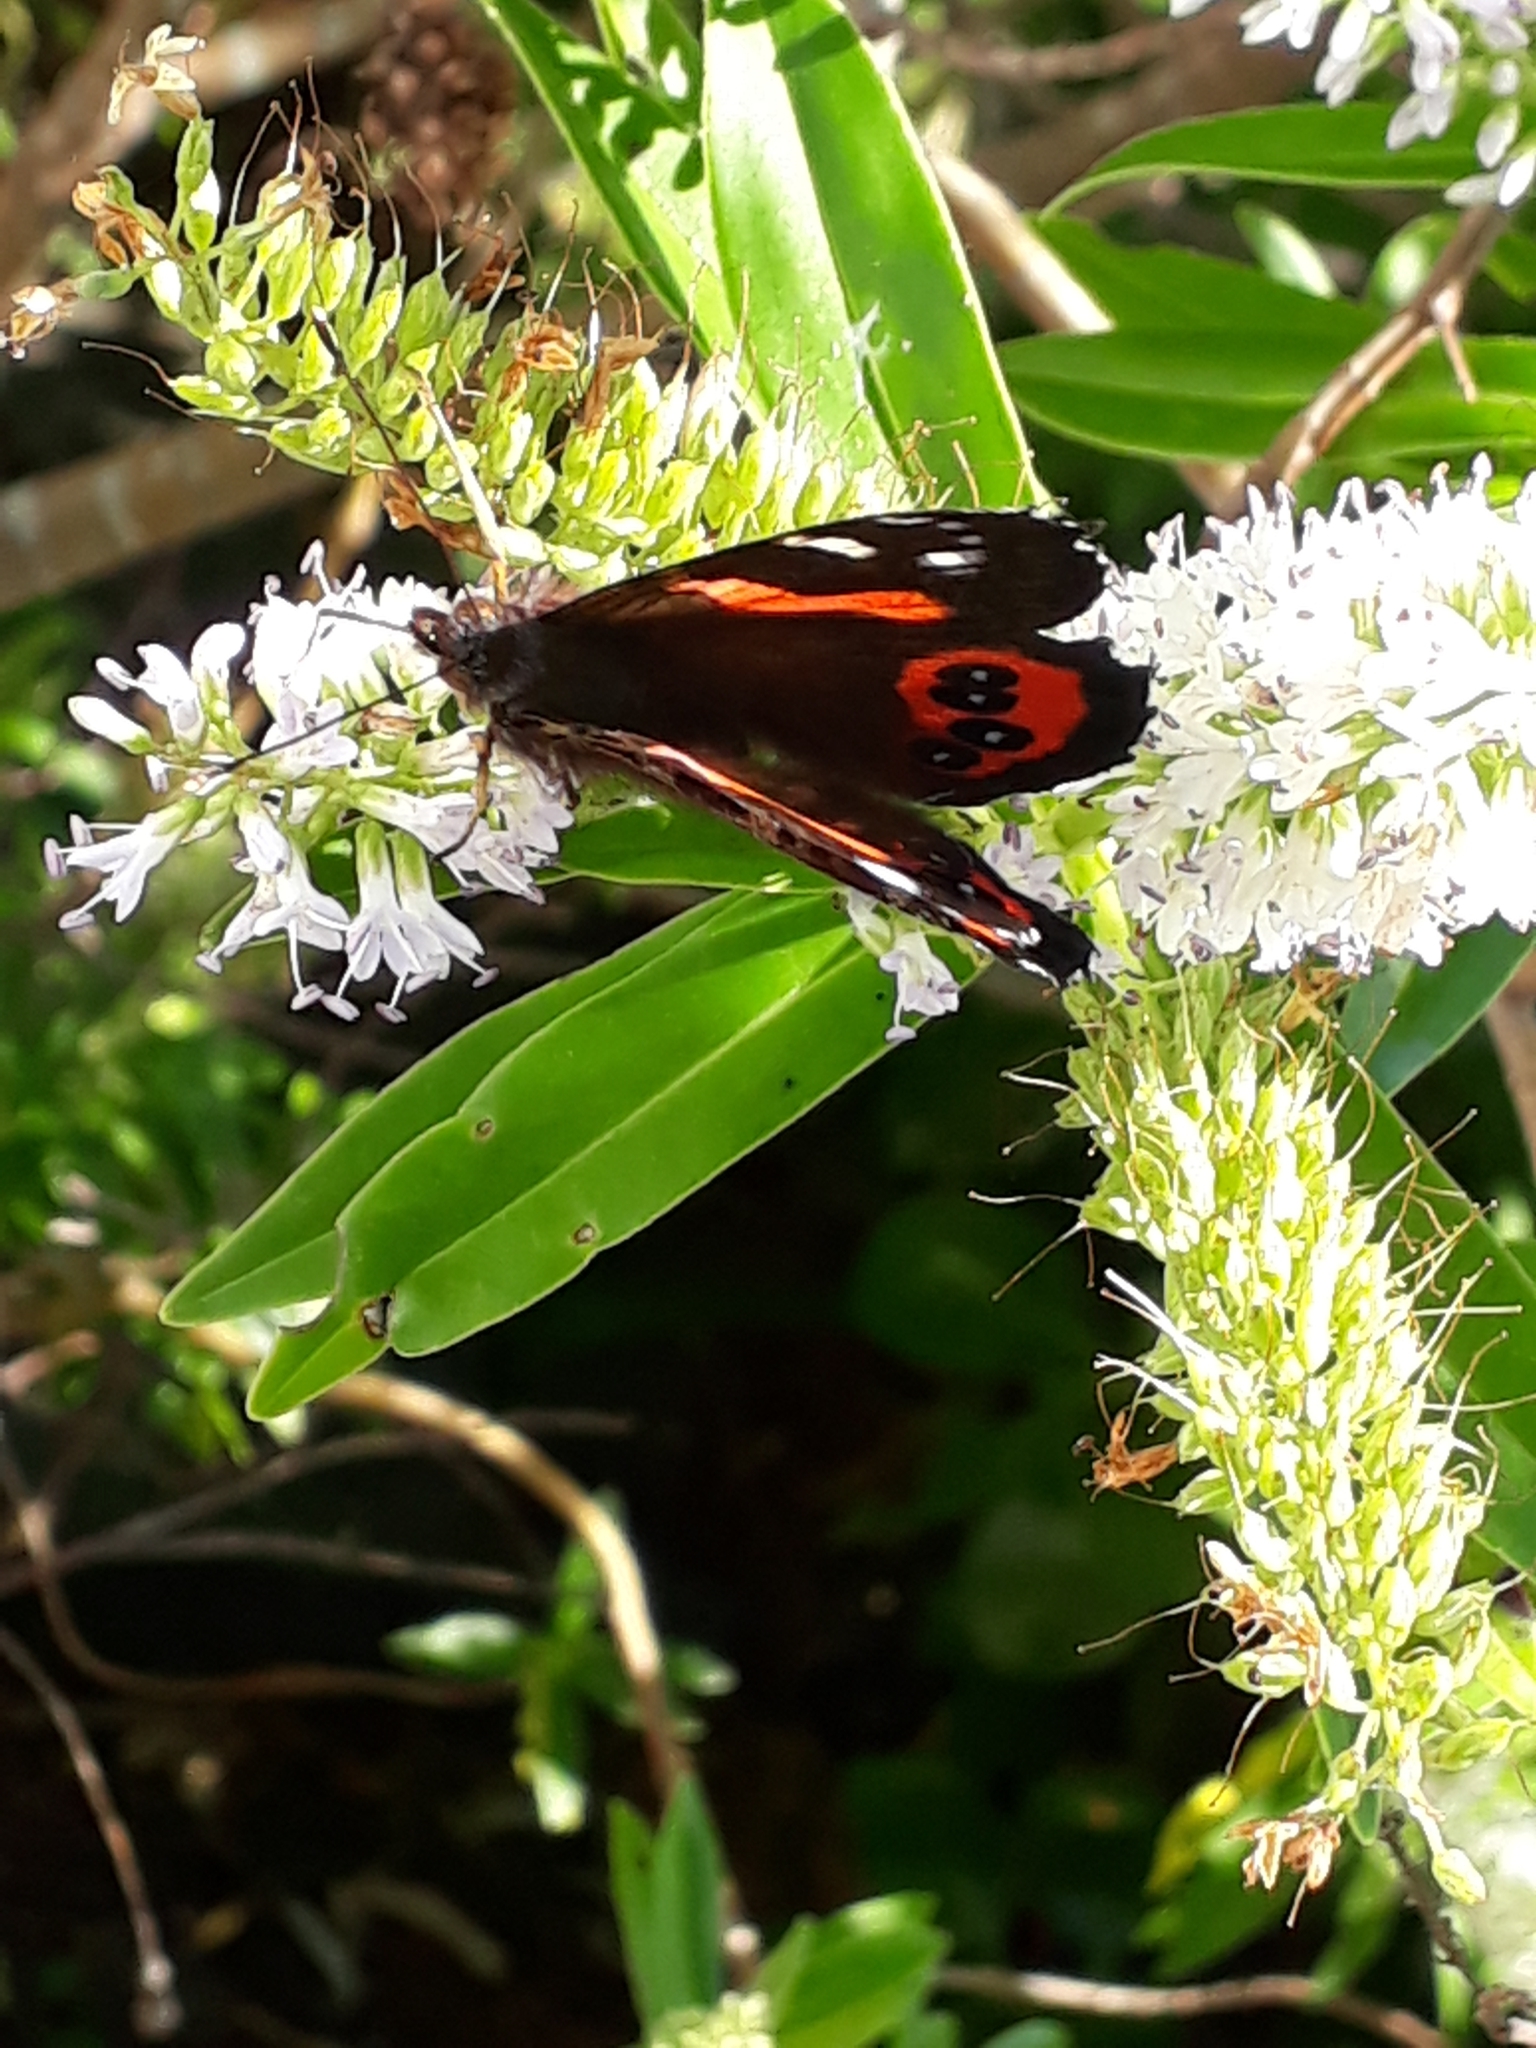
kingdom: Animalia
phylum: Arthropoda
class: Insecta
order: Lepidoptera
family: Nymphalidae
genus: Vanessa
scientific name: Vanessa gonerilla
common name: New zealand red admiral
